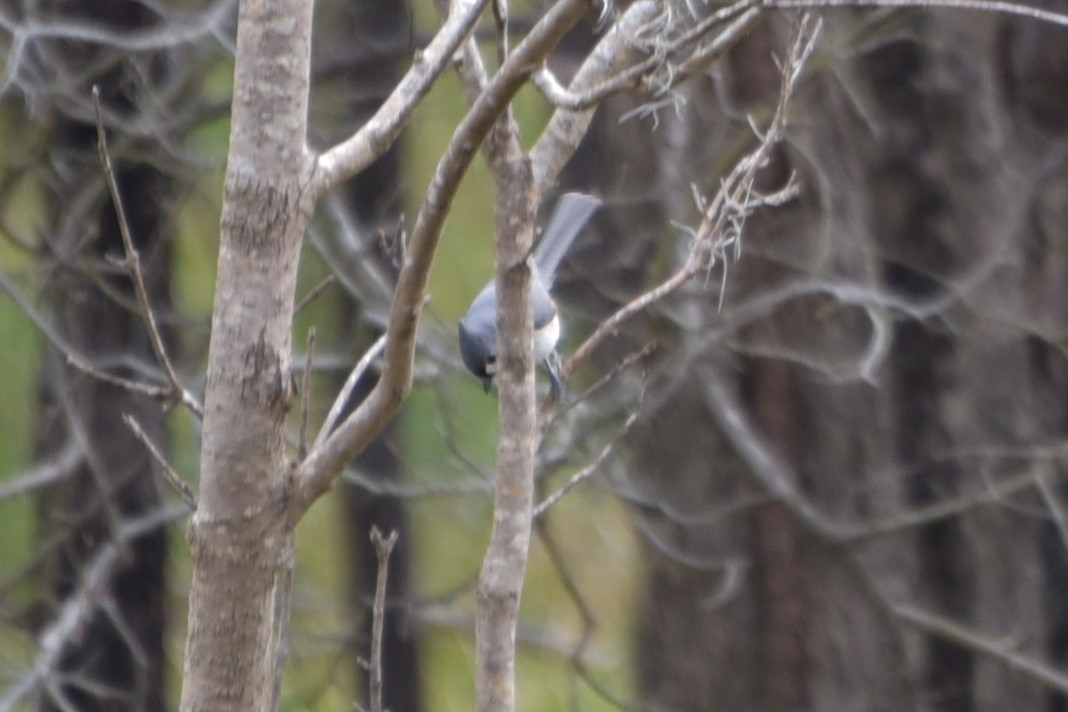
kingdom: Animalia
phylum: Chordata
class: Aves
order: Passeriformes
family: Paridae
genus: Baeolophus
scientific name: Baeolophus bicolor
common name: Tufted titmouse
